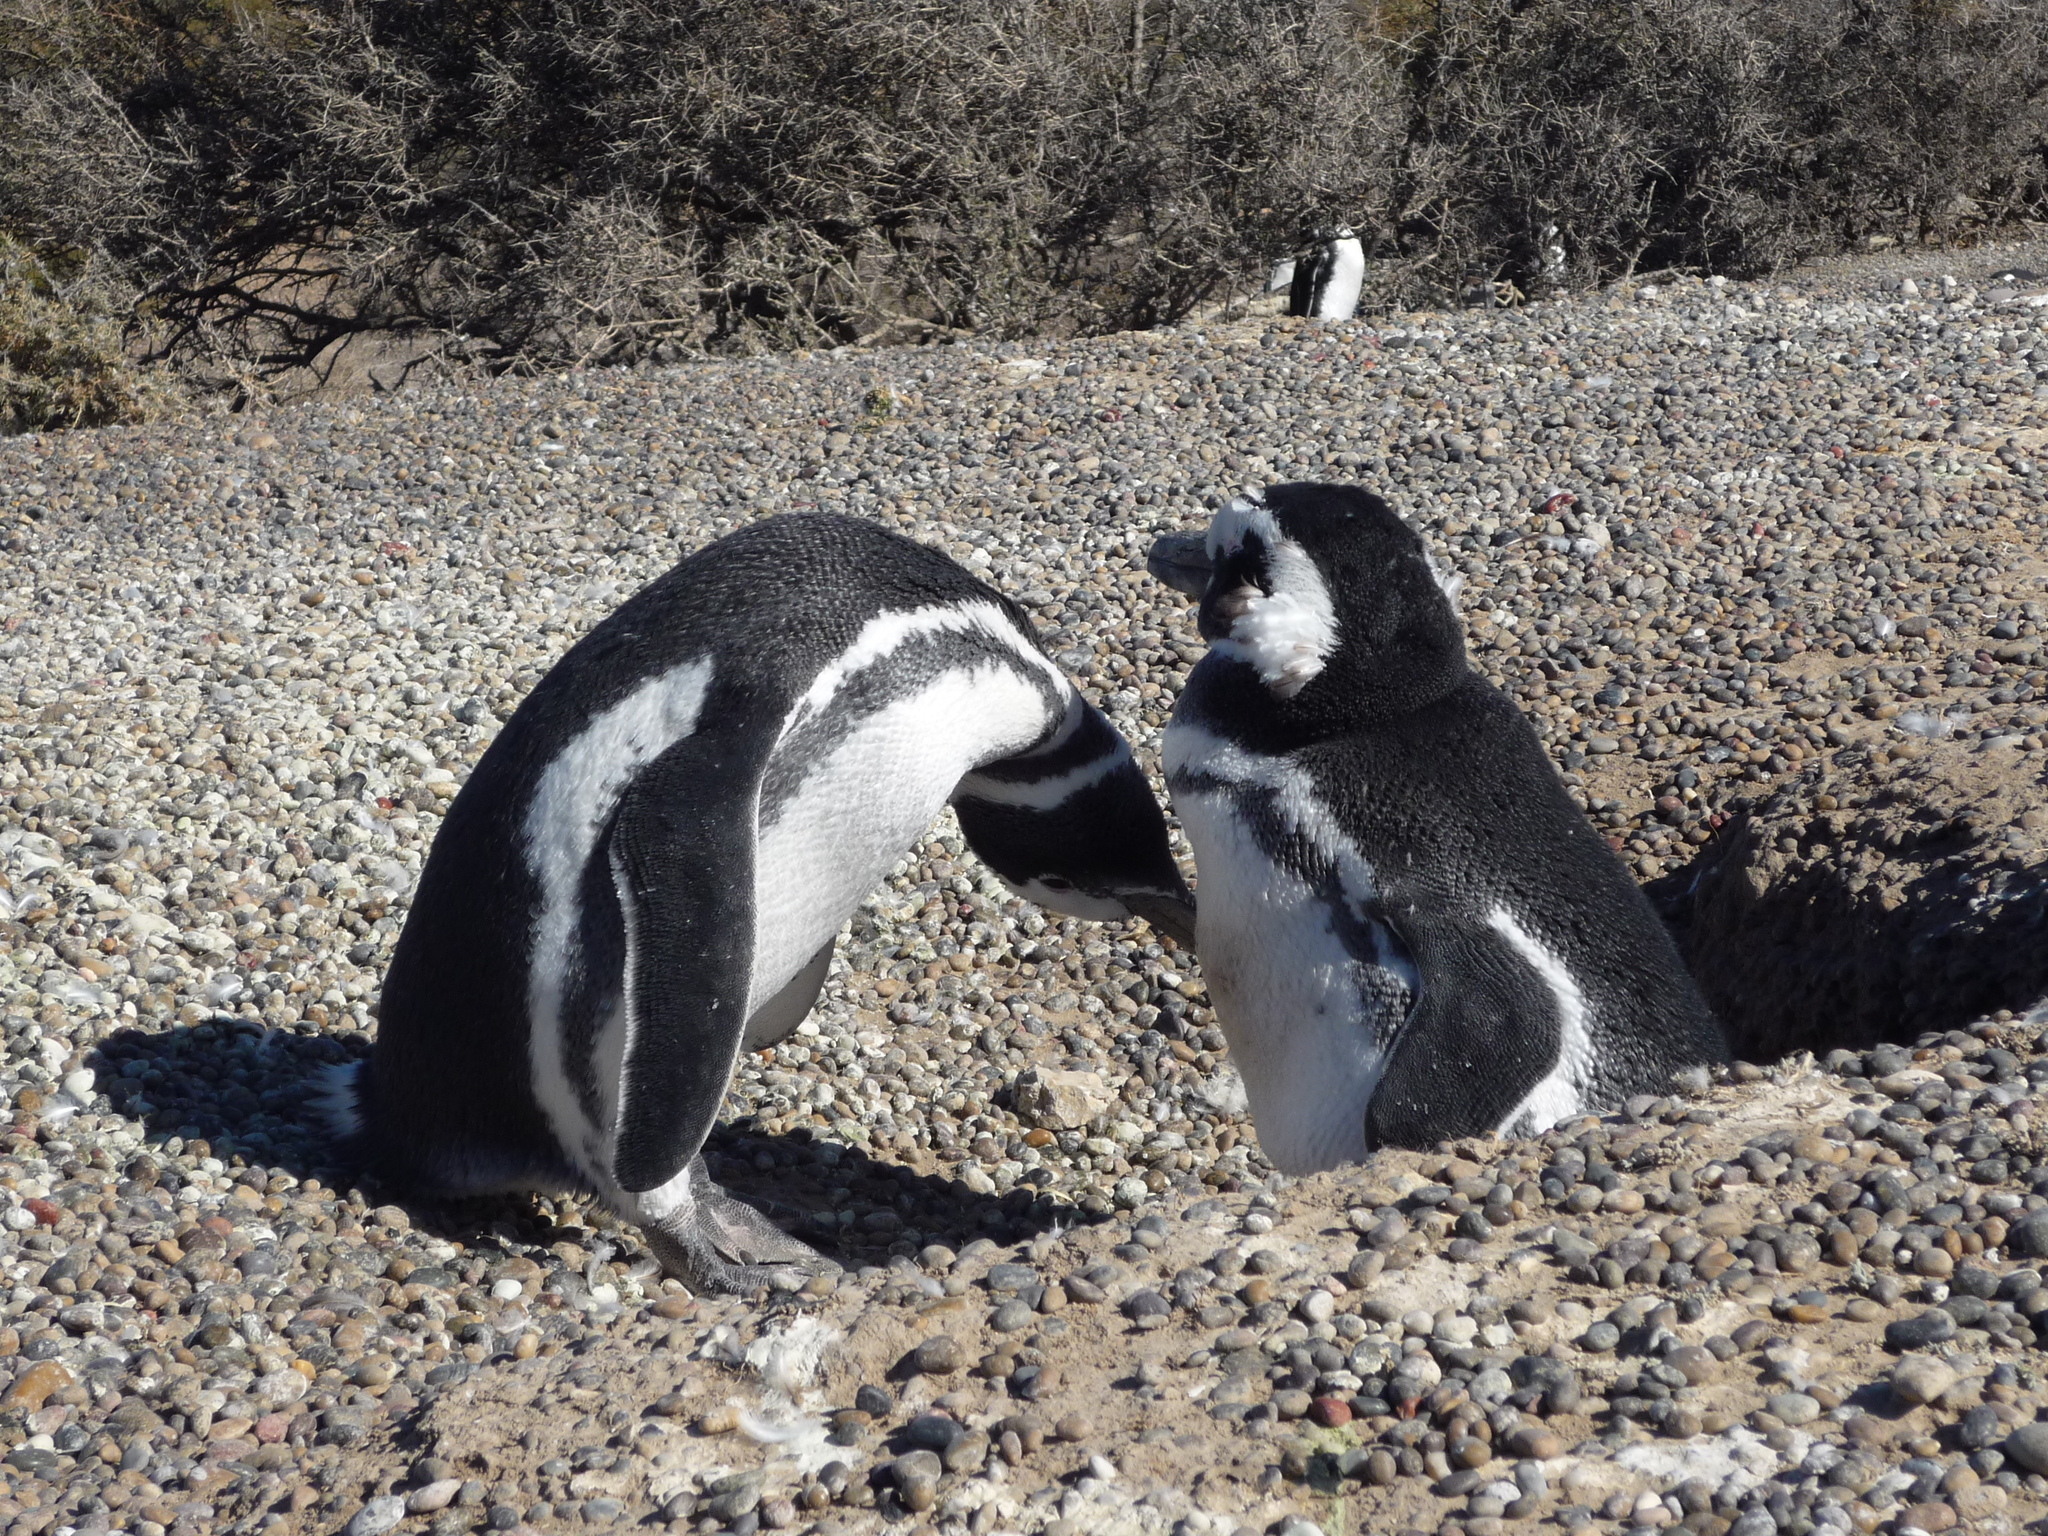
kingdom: Animalia
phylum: Chordata
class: Aves
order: Sphenisciformes
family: Spheniscidae
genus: Spheniscus
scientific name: Spheniscus magellanicus
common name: Magellanic penguin
